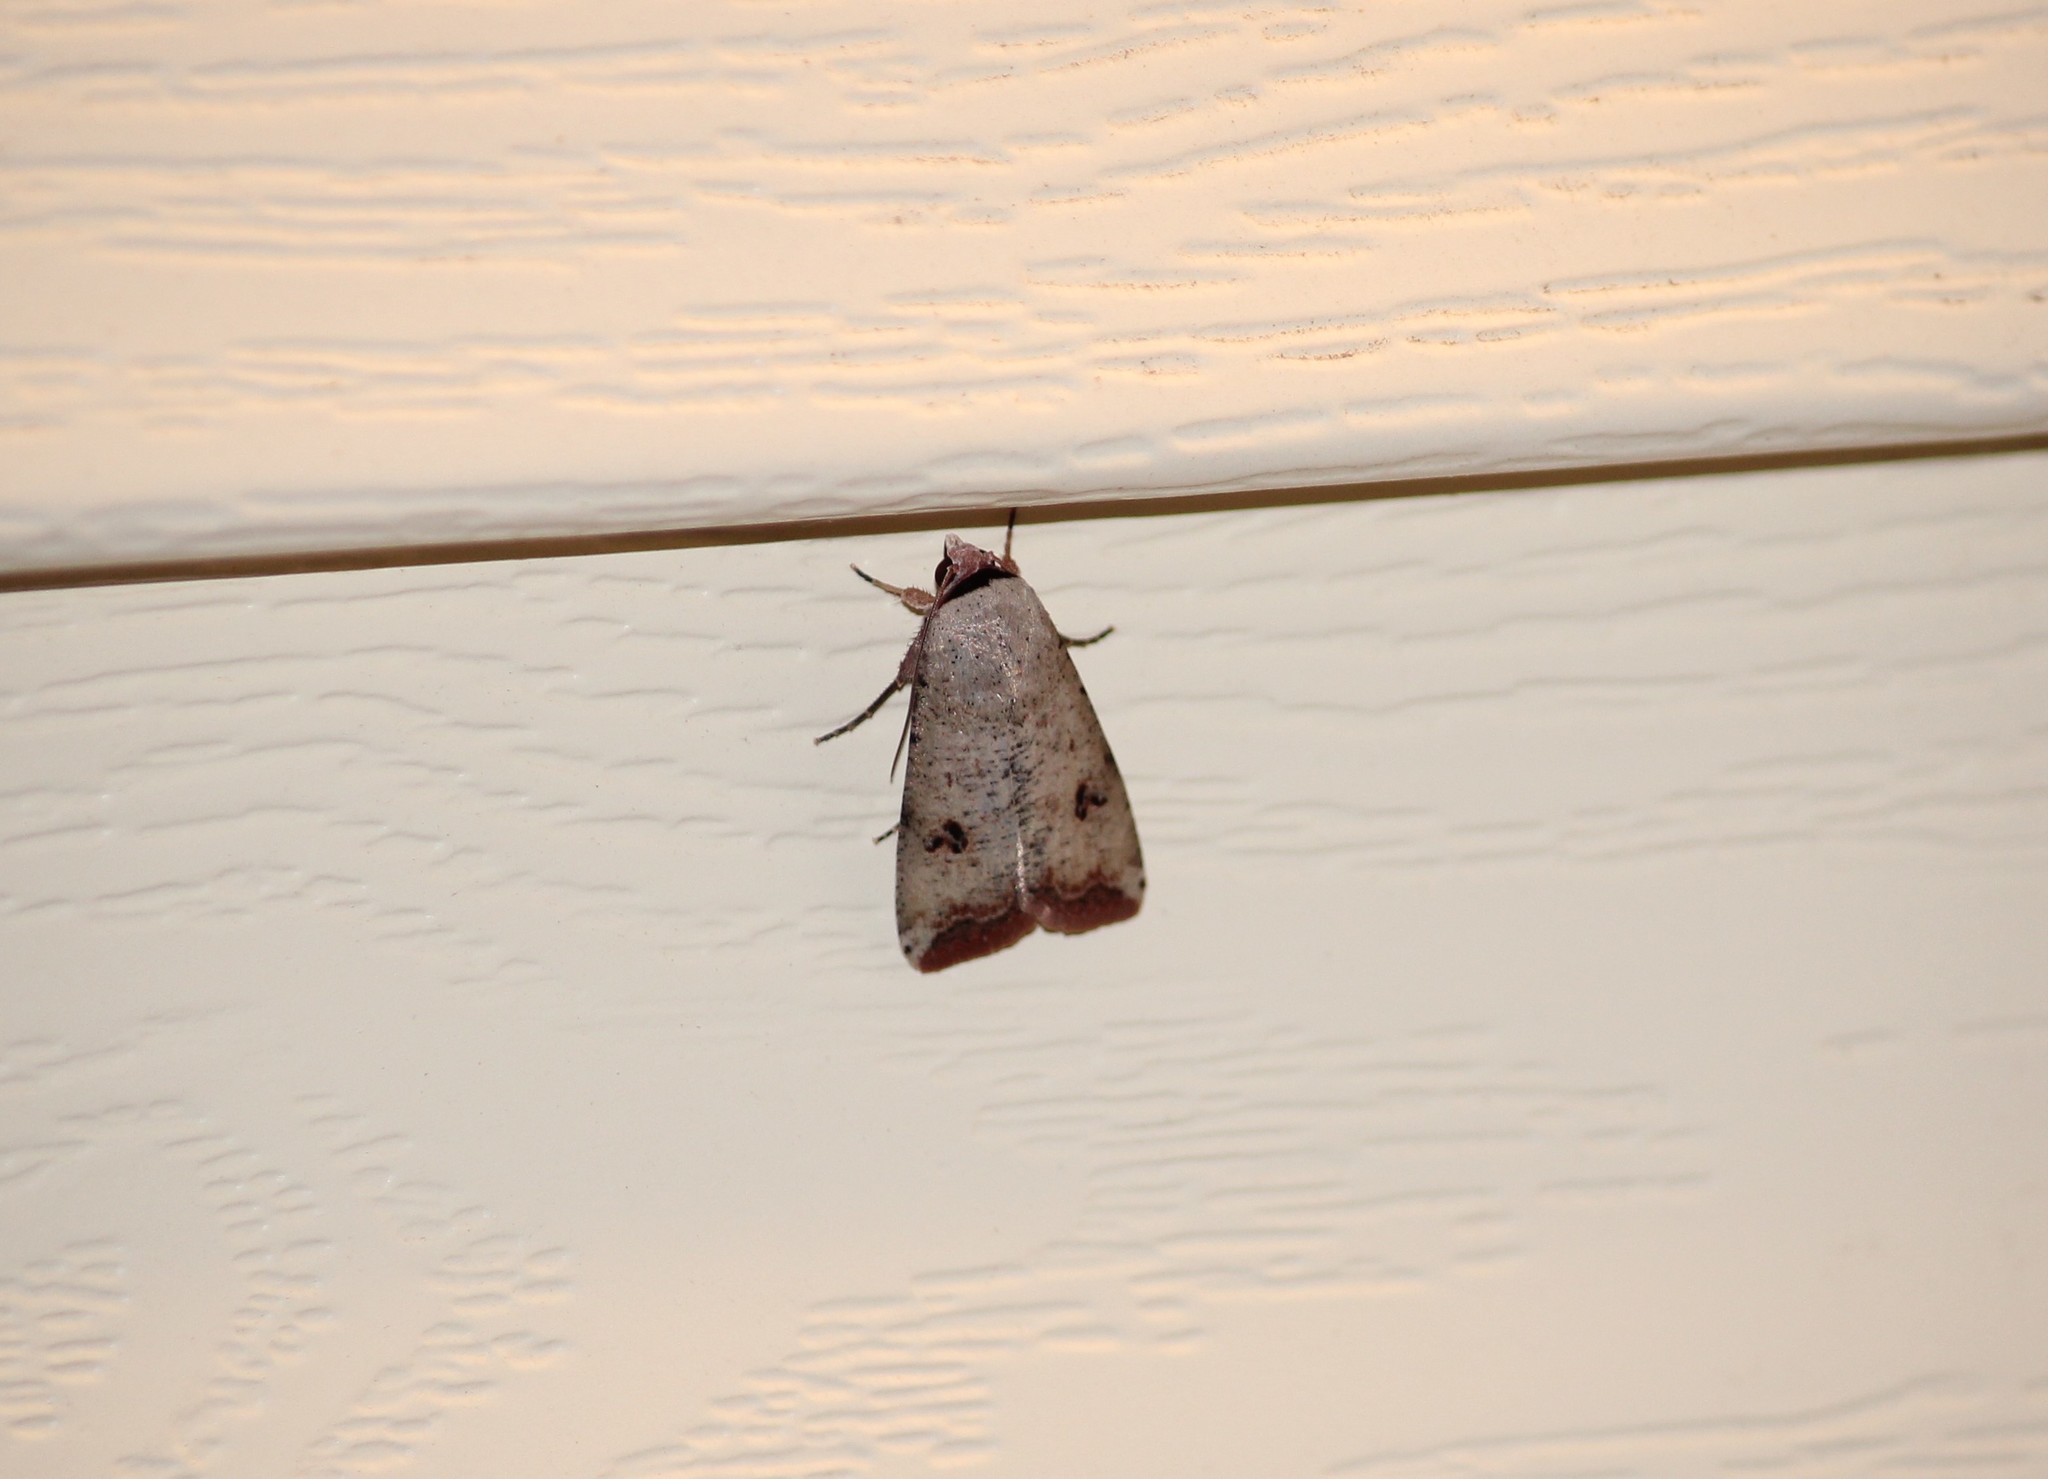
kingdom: Animalia
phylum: Arthropoda
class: Insecta
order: Lepidoptera
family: Noctuidae
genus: Anicla
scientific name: Anicla infecta
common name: Green cutworm
